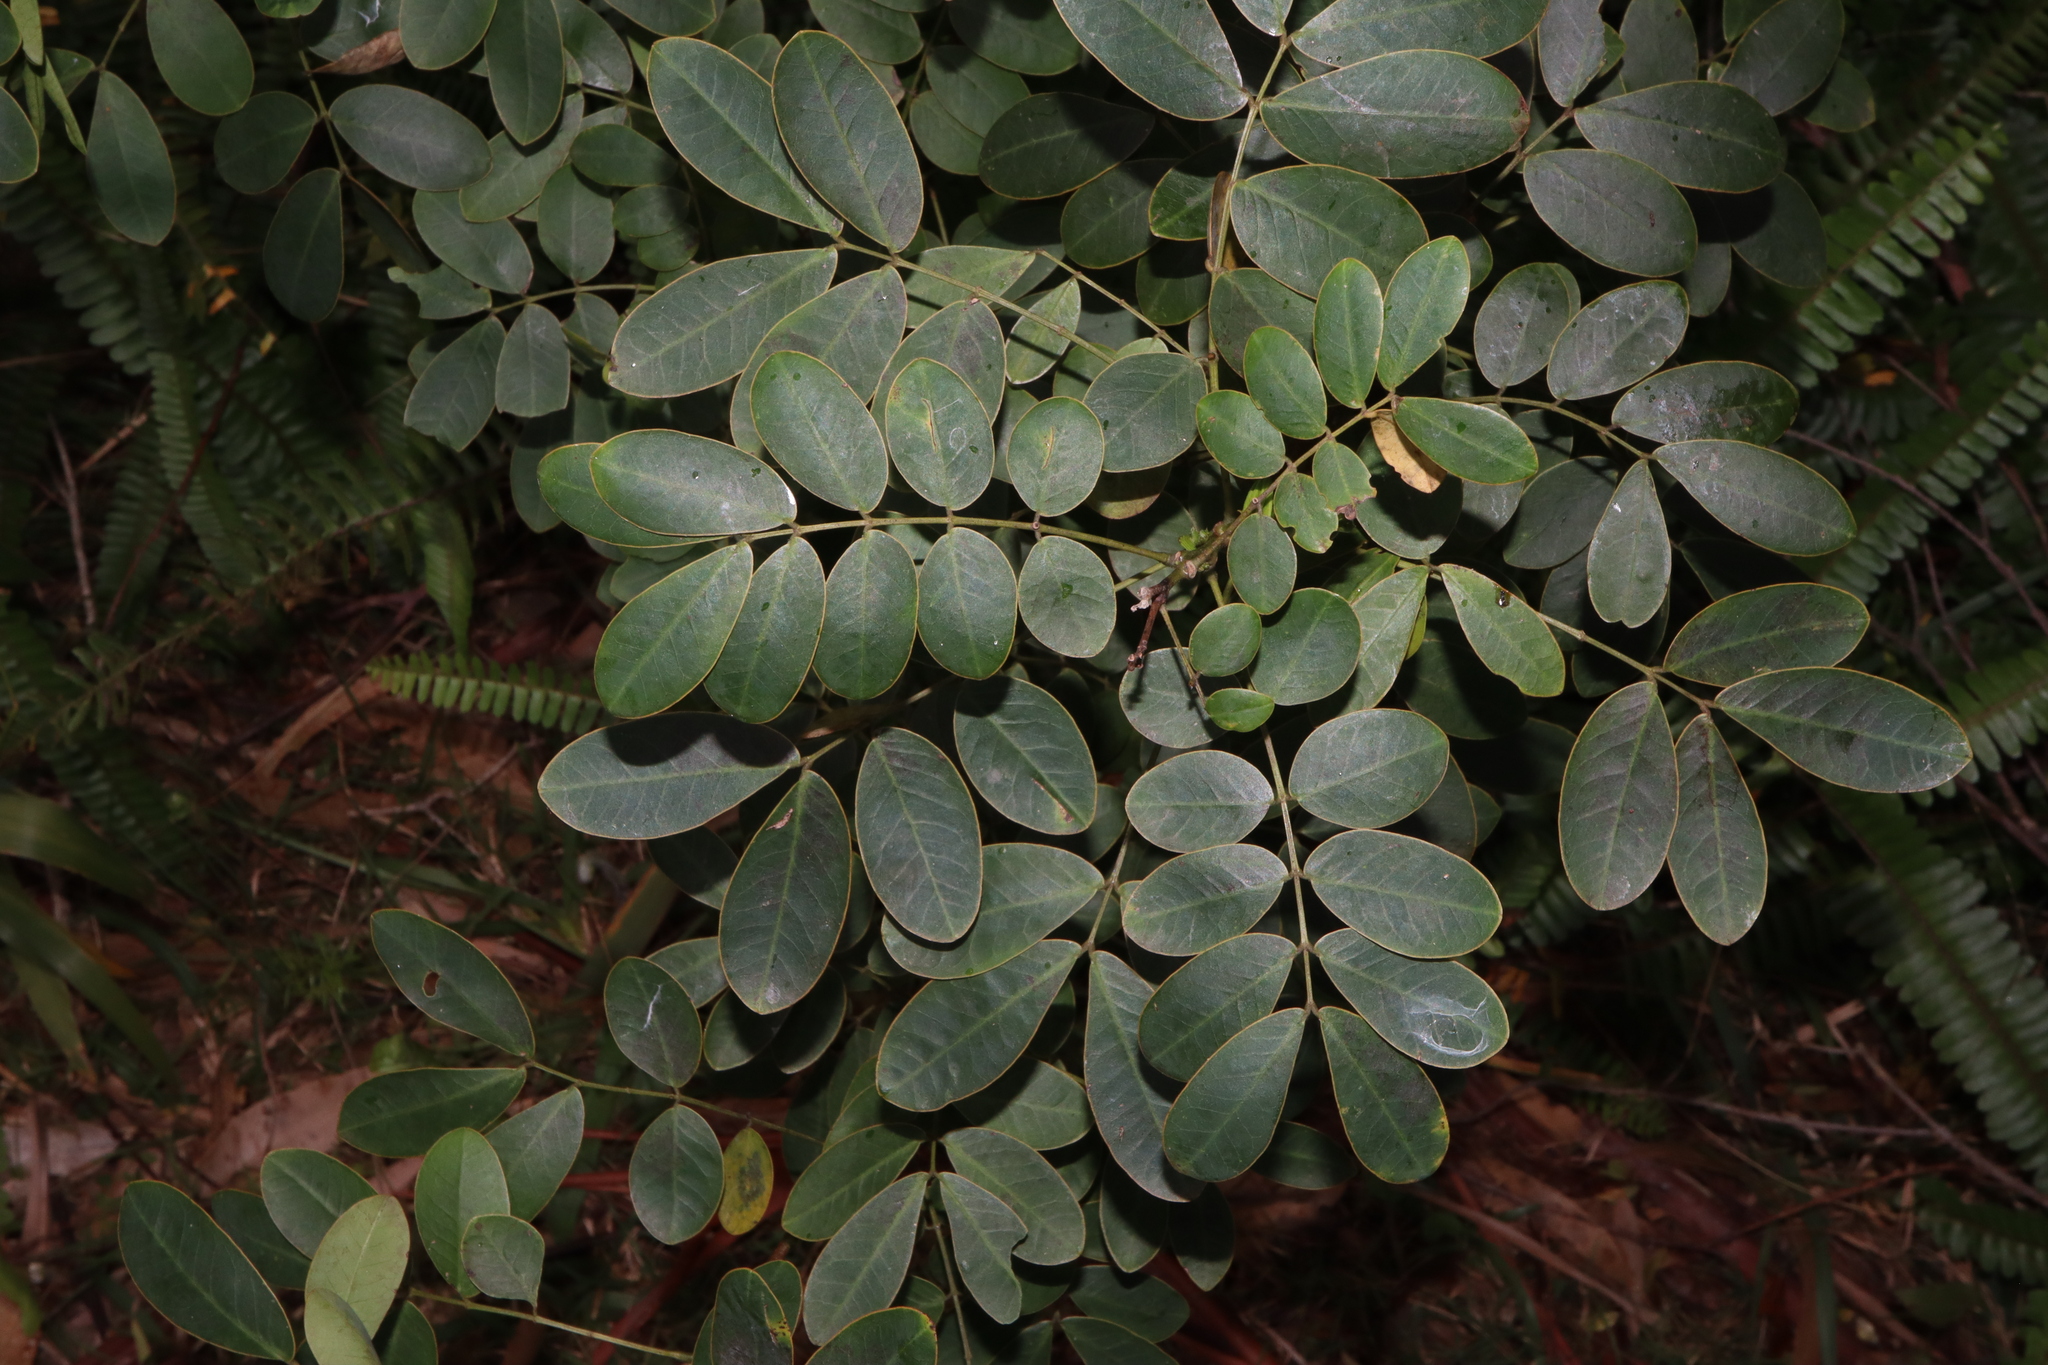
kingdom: Plantae
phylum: Tracheophyta
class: Magnoliopsida
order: Fabales
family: Fabaceae
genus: Senna
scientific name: Senna pendula
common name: Easter cassia
